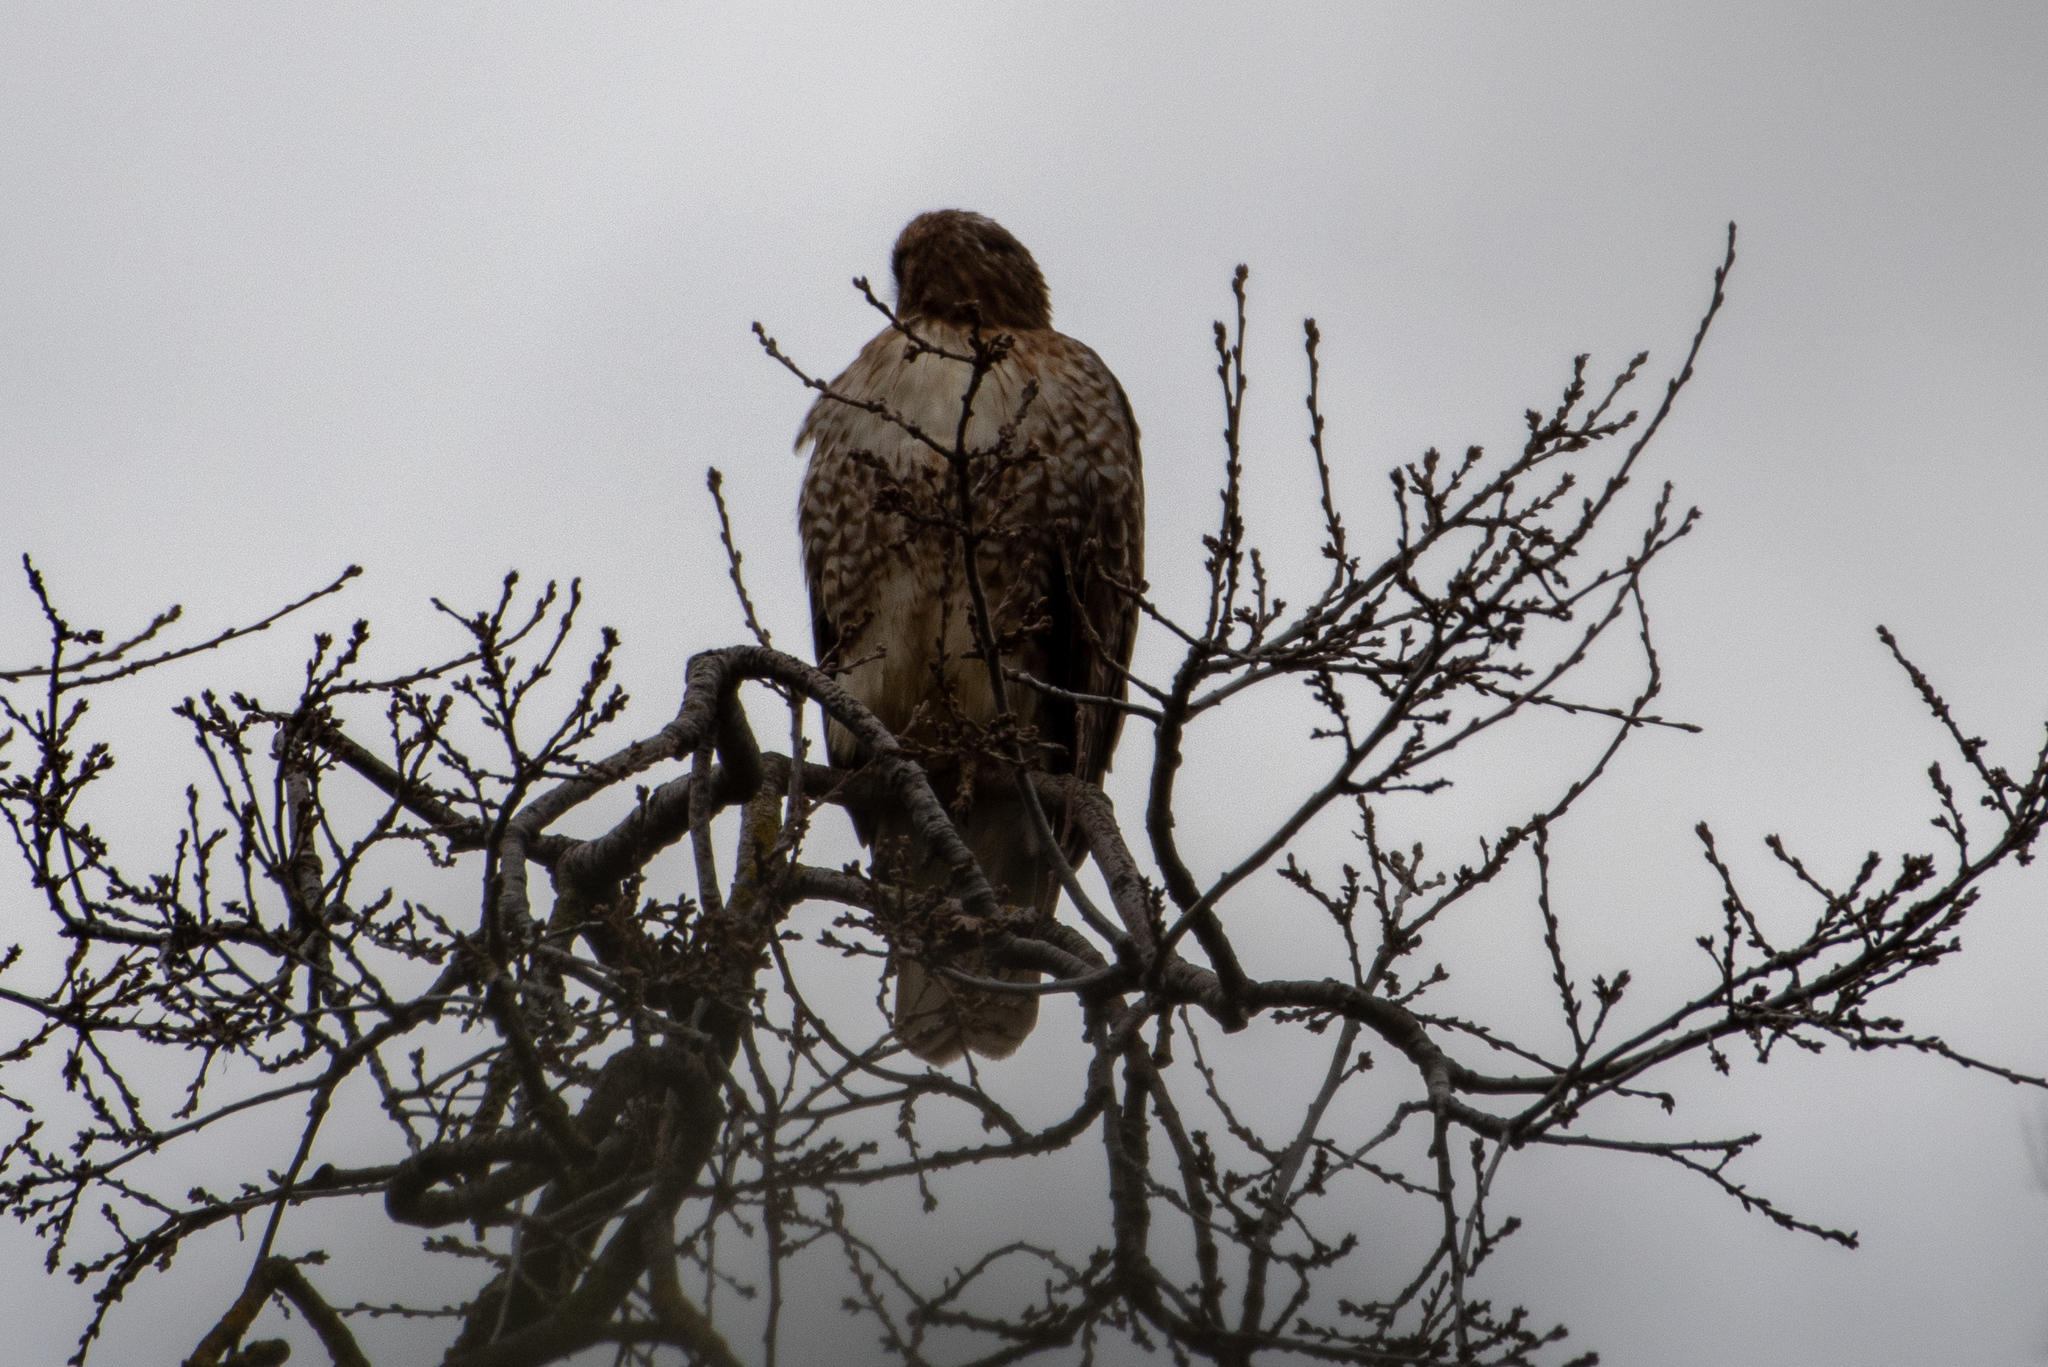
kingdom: Animalia
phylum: Chordata
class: Aves
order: Accipitriformes
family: Accipitridae
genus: Buteo
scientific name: Buteo jamaicensis
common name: Red-tailed hawk
